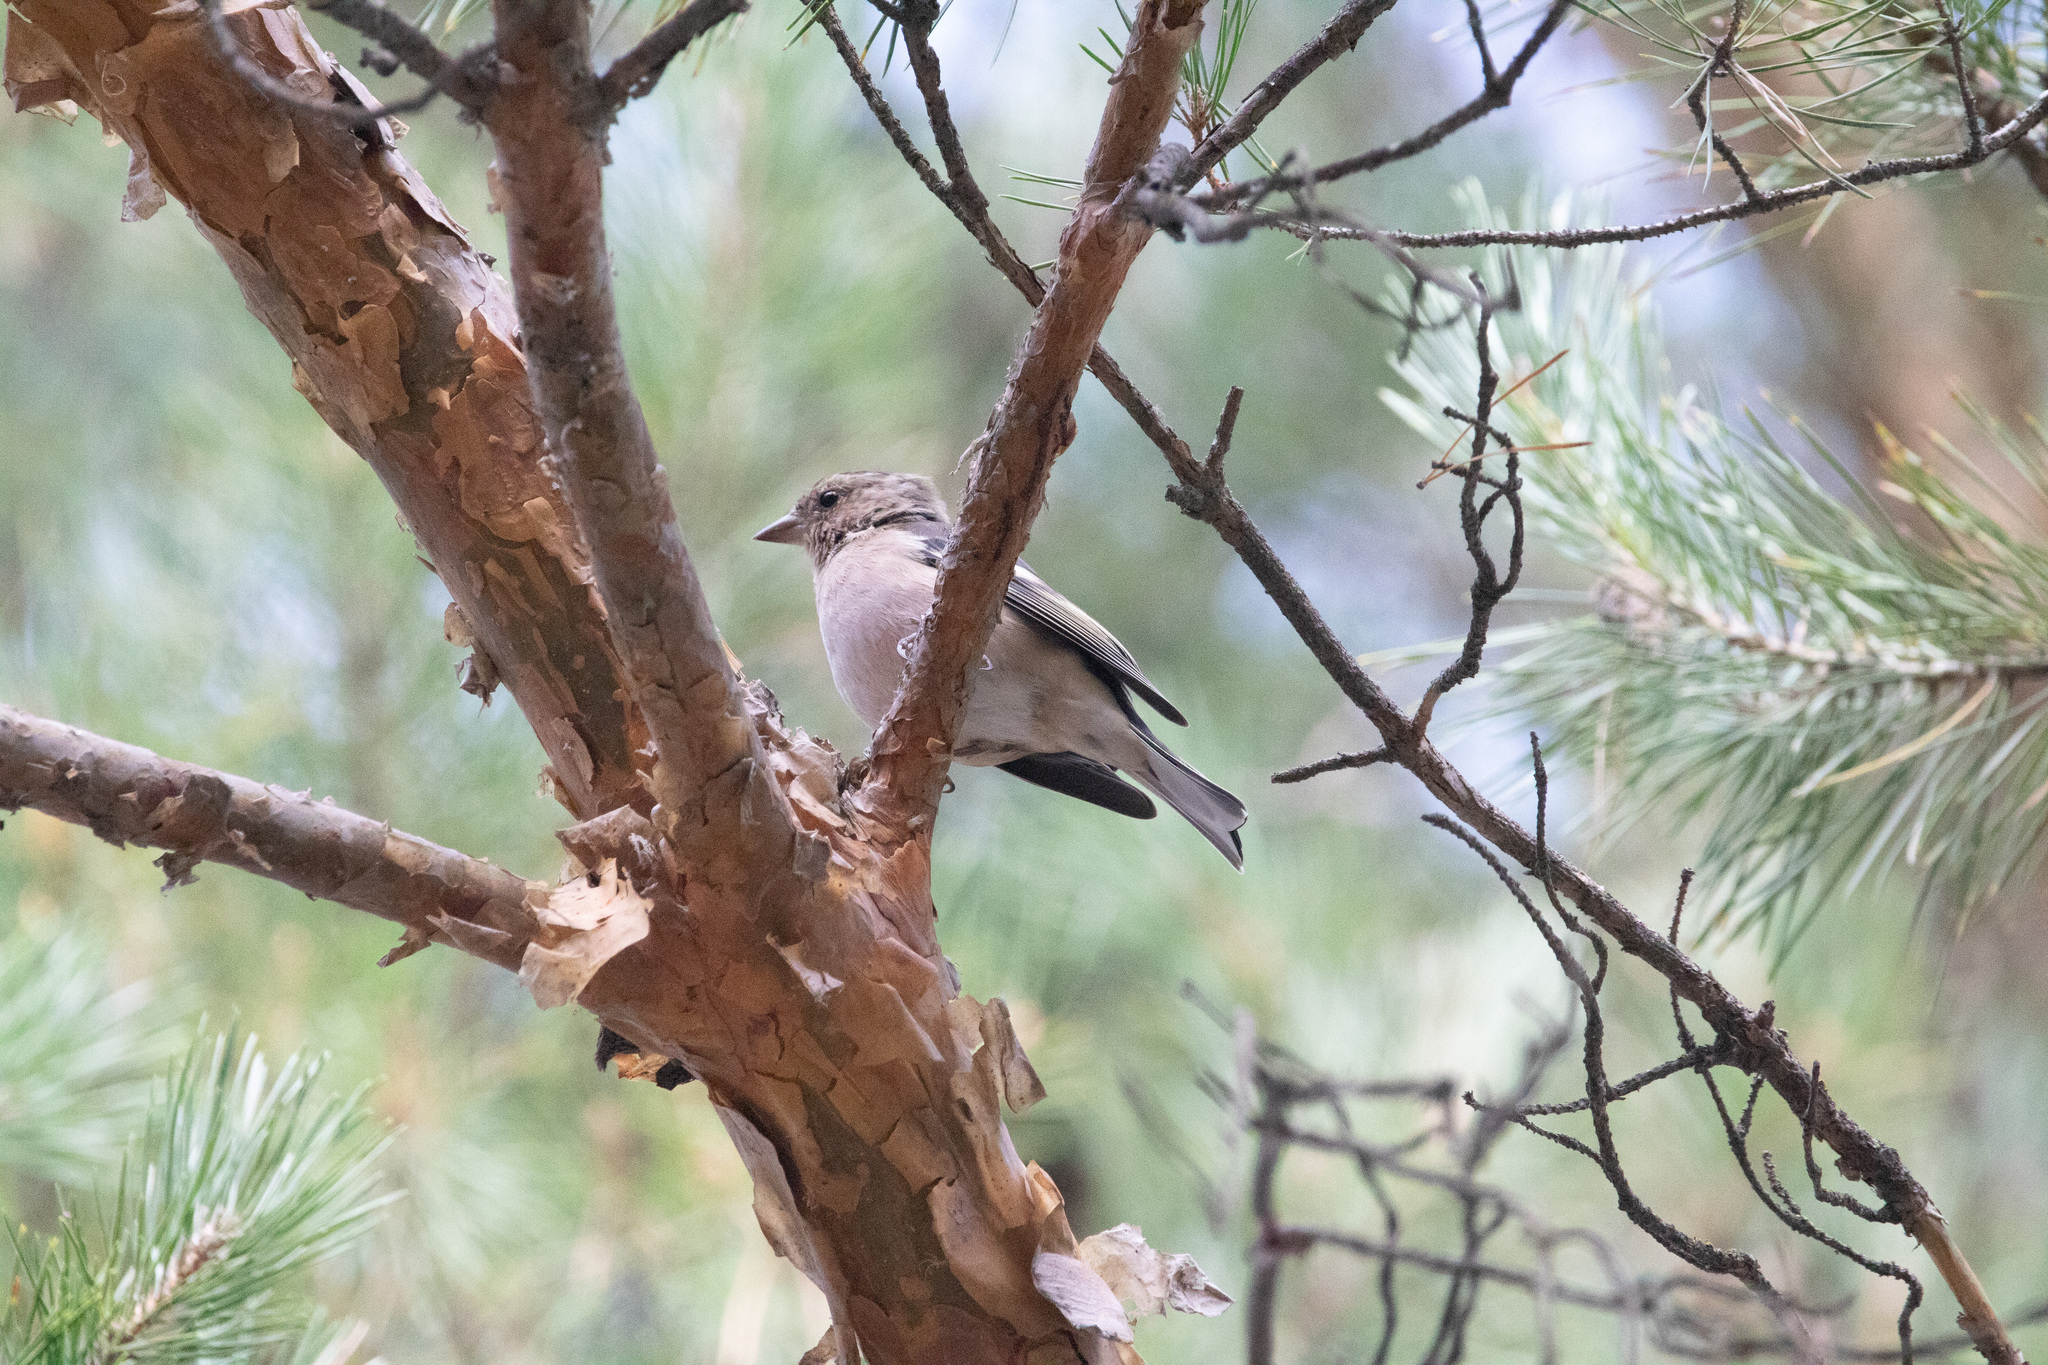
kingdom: Animalia
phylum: Chordata
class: Aves
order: Passeriformes
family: Fringillidae
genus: Fringilla
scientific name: Fringilla coelebs
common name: Common chaffinch
